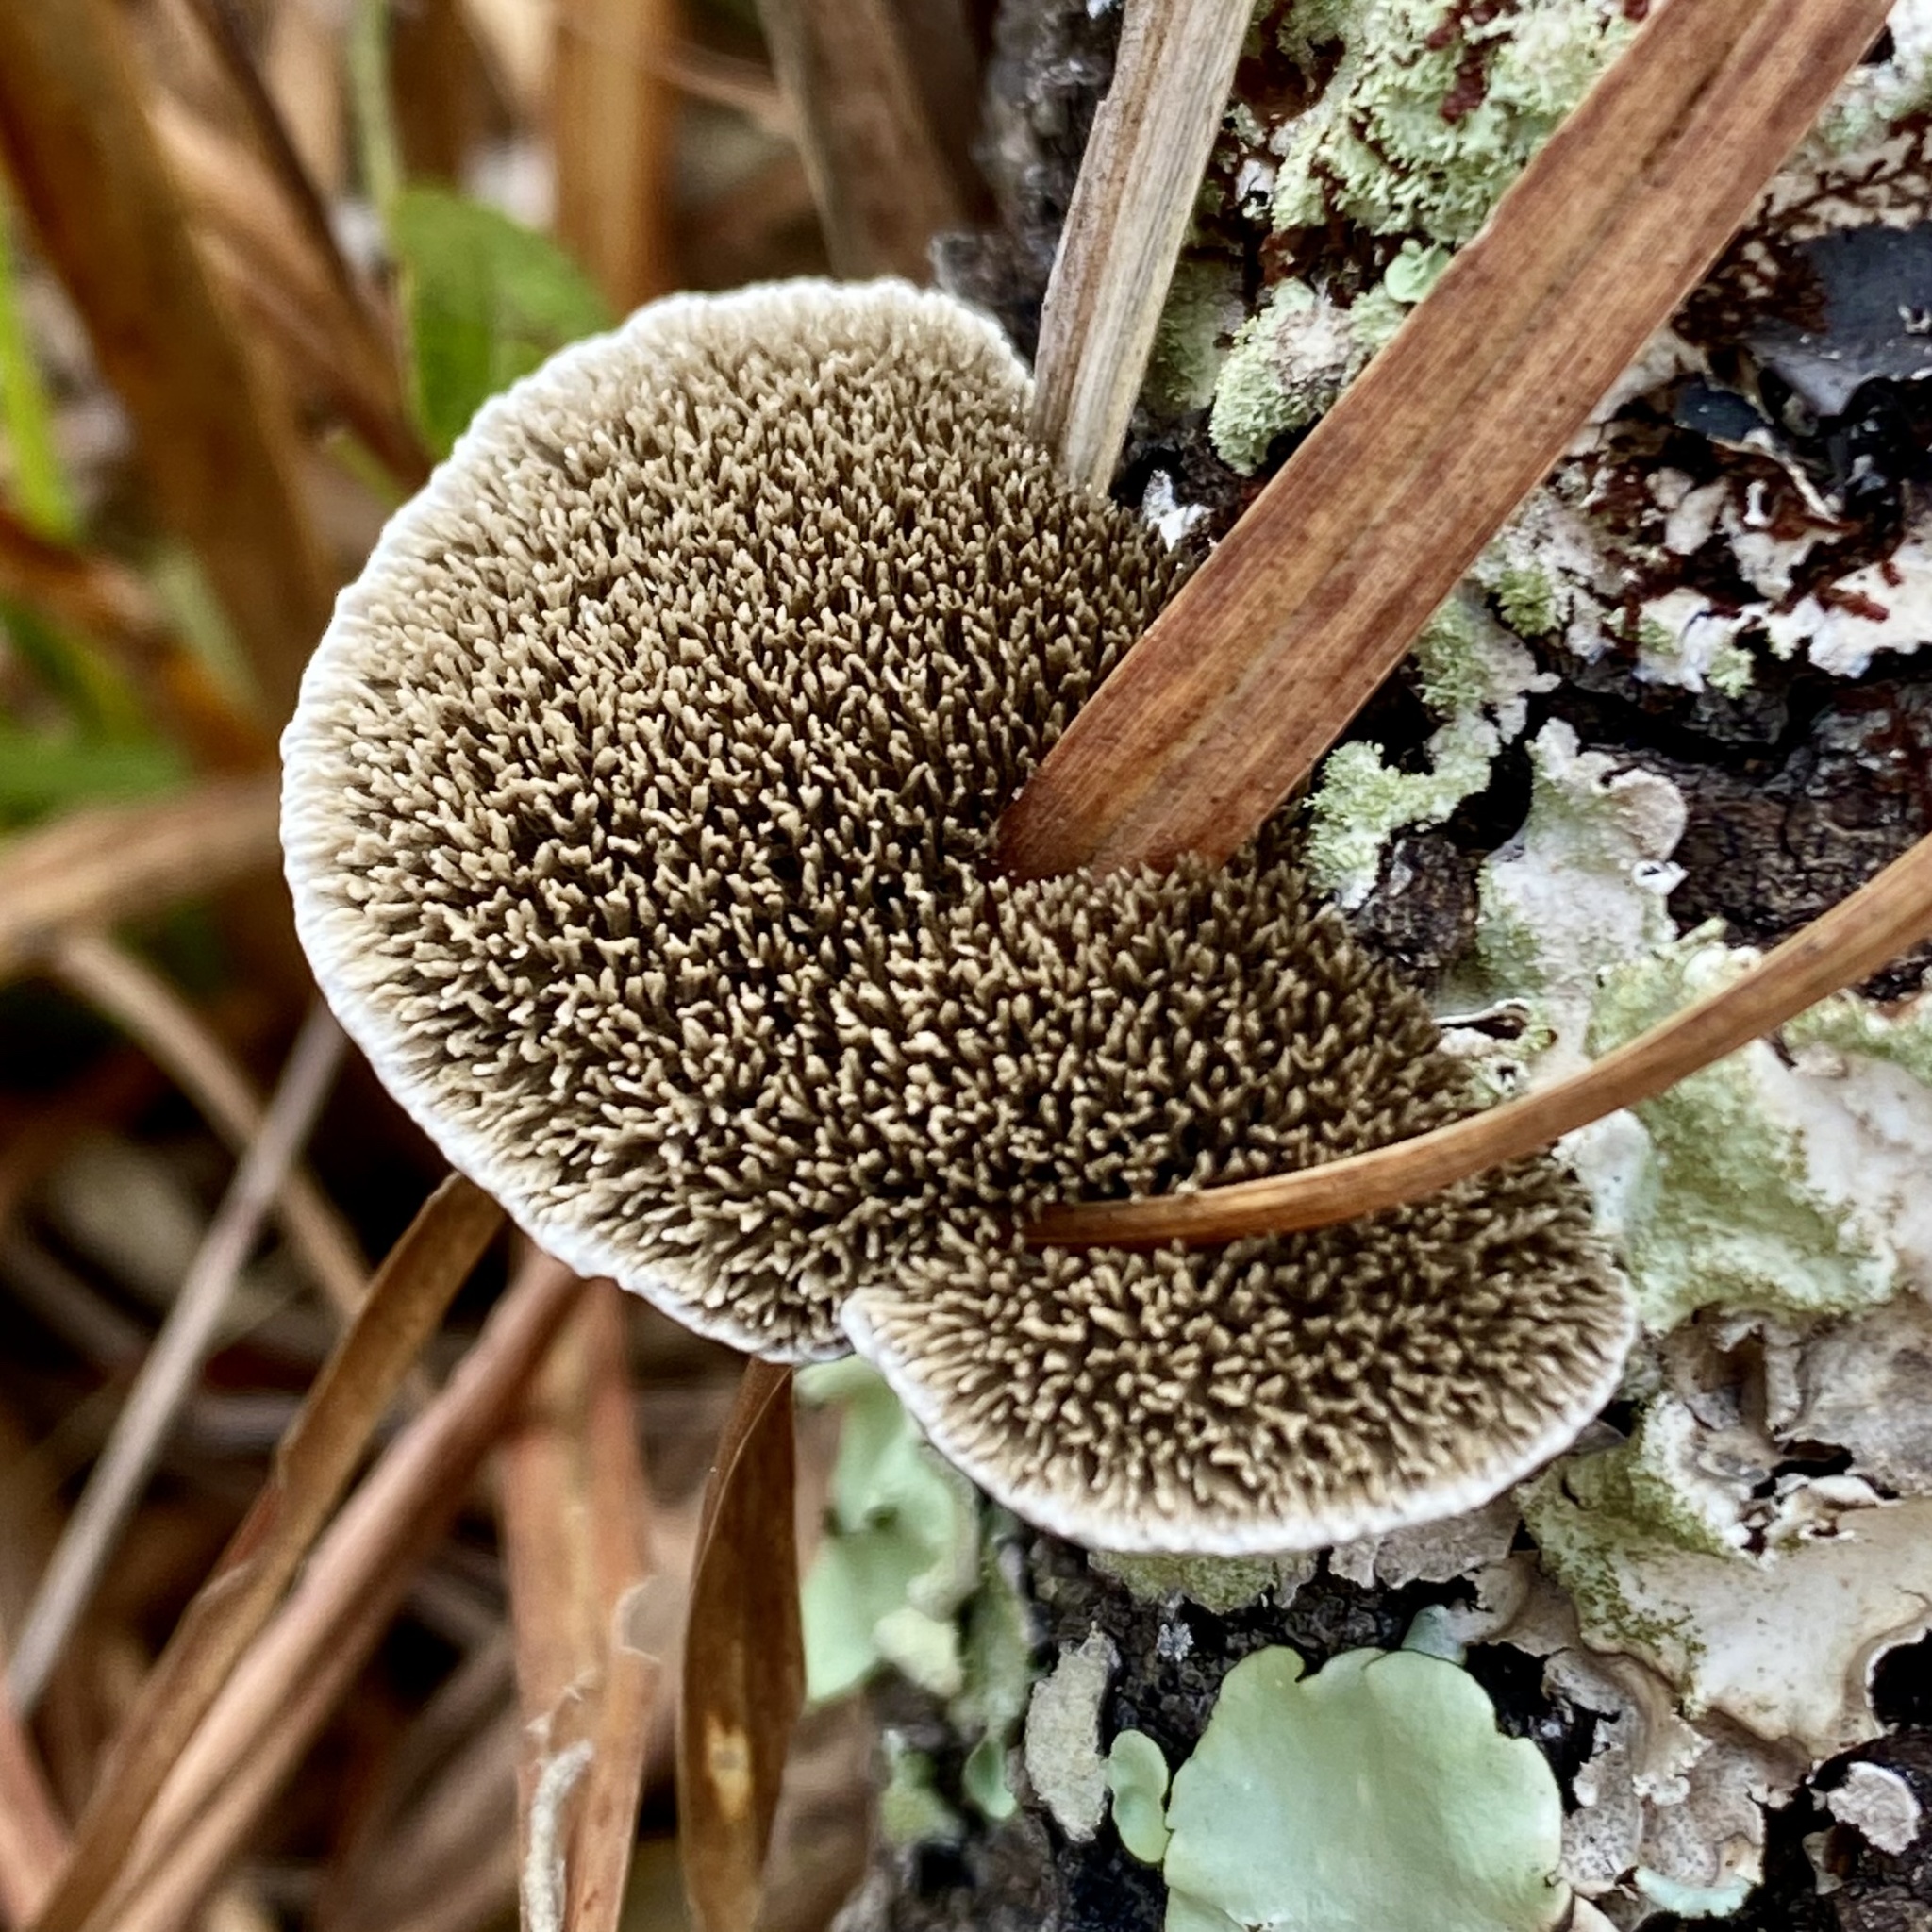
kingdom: Fungi
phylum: Basidiomycota
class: Agaricomycetes
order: Polyporales
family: Cerrenaceae
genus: Cerrena
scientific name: Cerrena hydnoides
